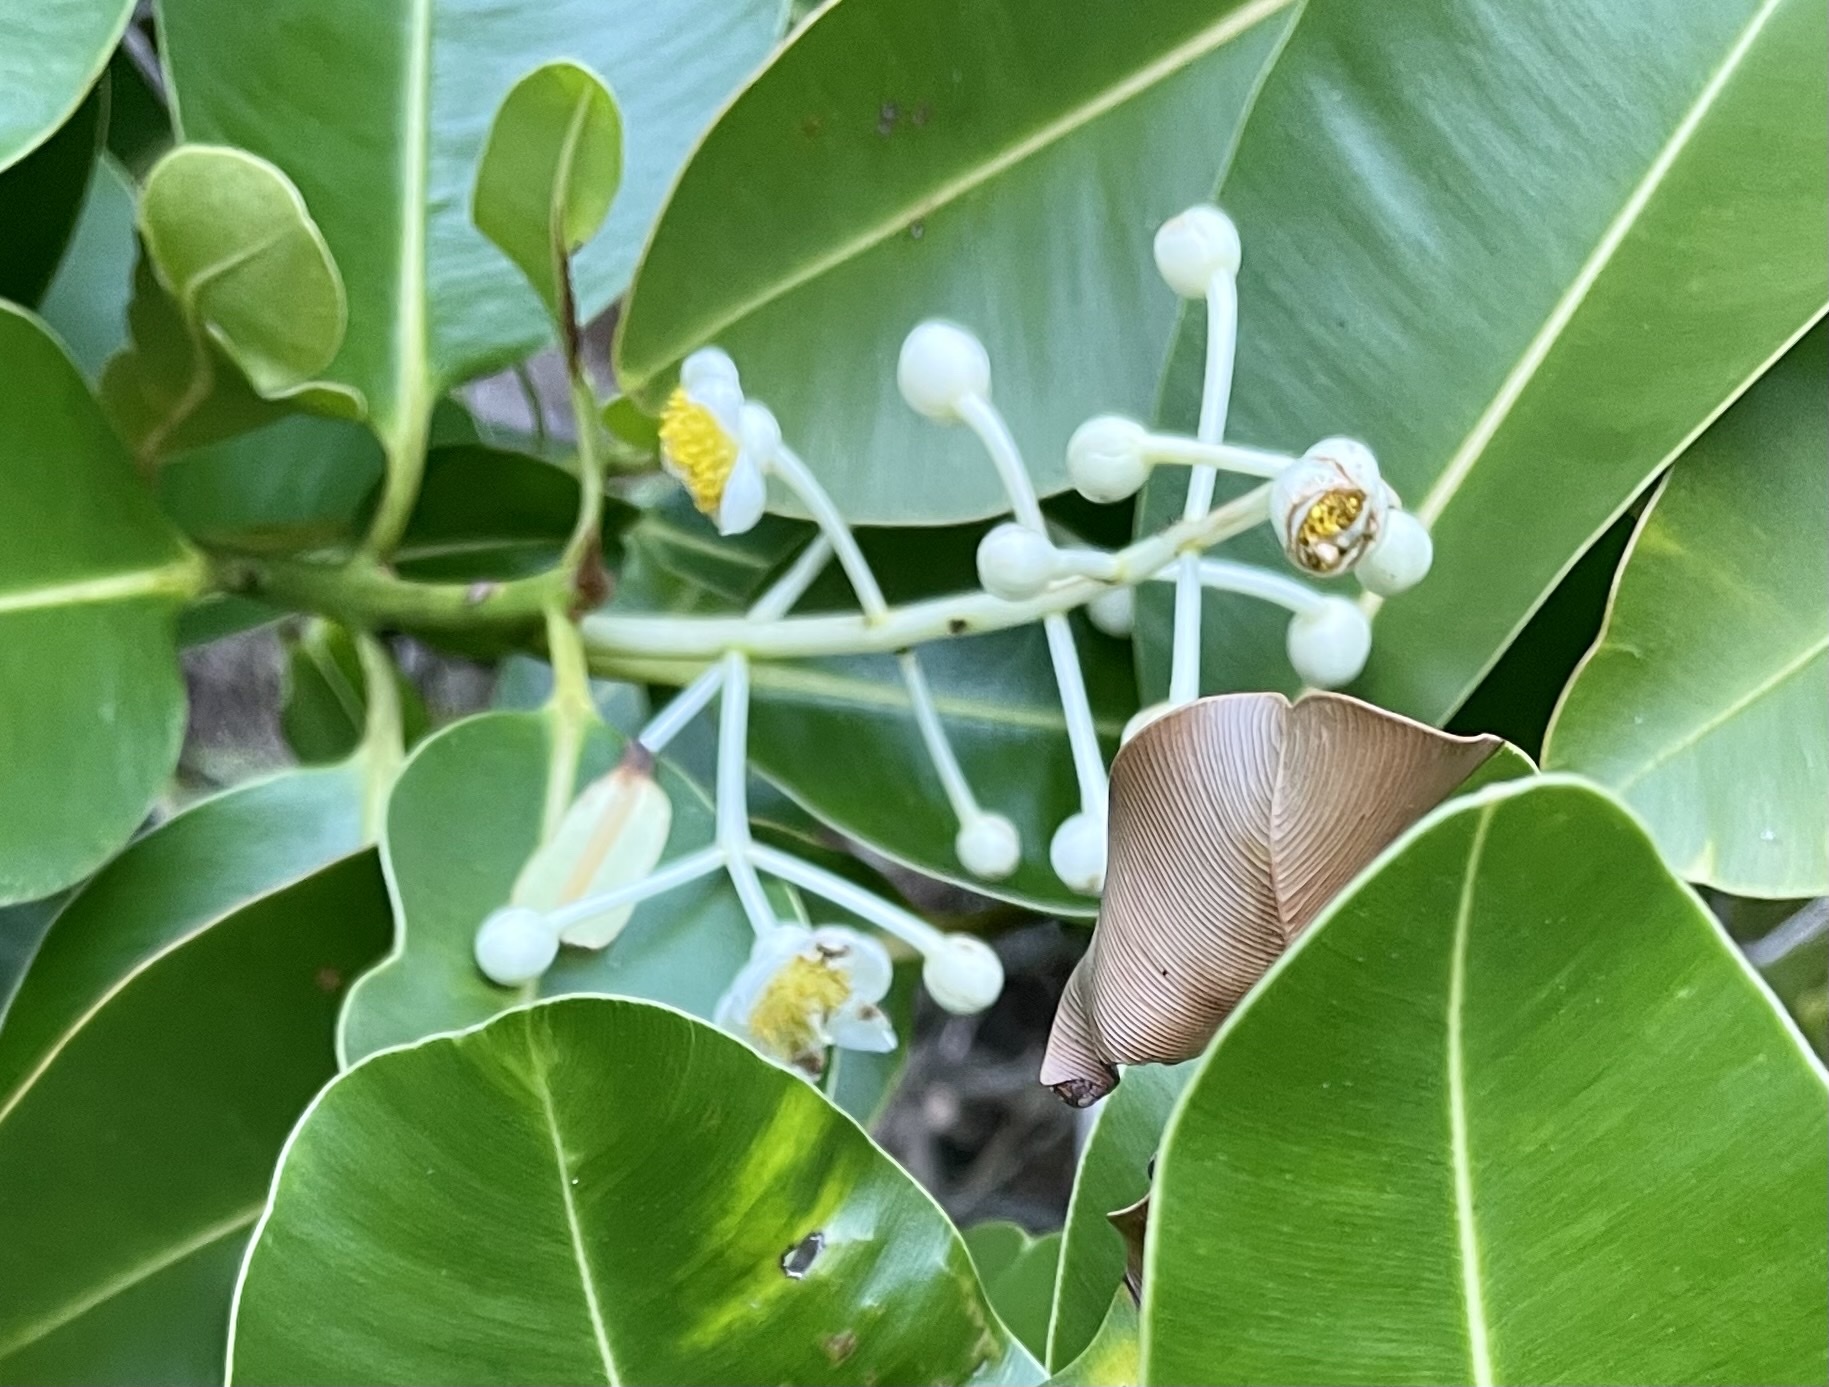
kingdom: Plantae
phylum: Tracheophyta
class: Magnoliopsida
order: Malpighiales
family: Calophyllaceae
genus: Calophyllum
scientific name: Calophyllum inophyllum
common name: Alexandrian laurel
